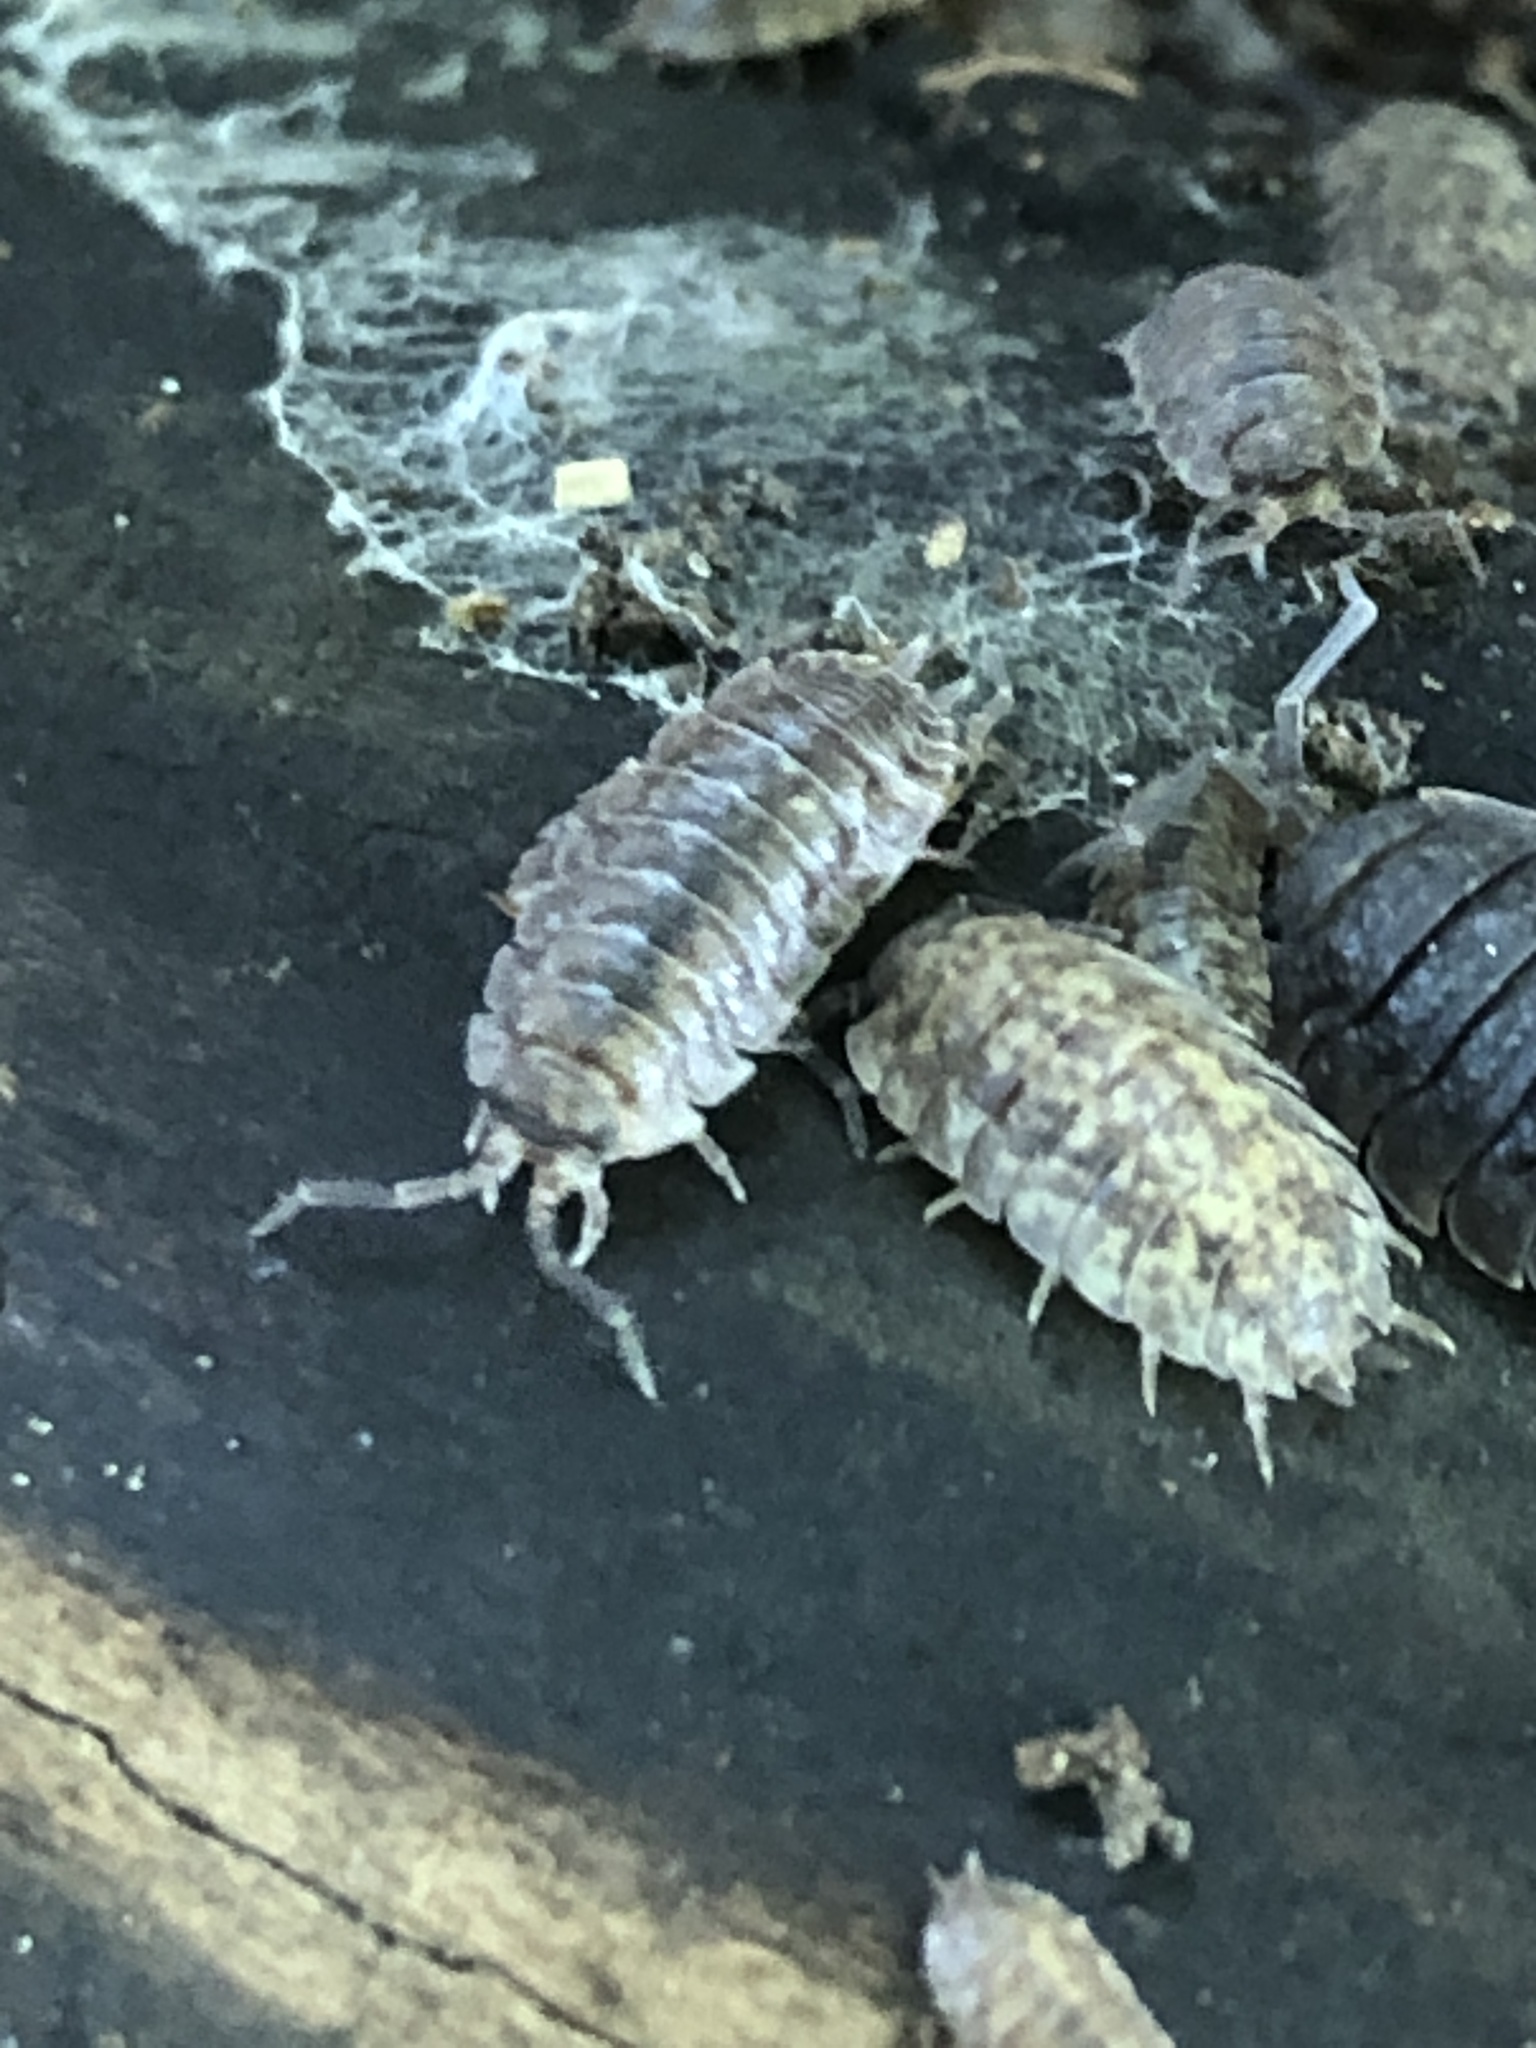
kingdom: Animalia
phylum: Arthropoda
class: Malacostraca
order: Isopoda
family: Porcellionidae
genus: Porcellio
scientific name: Porcellio scaber
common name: Common rough woodlouse
